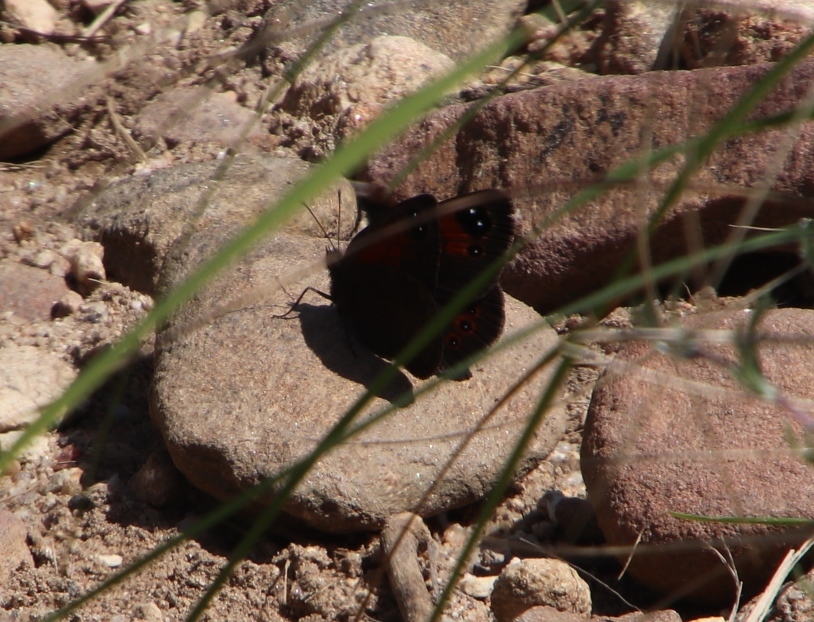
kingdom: Animalia
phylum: Arthropoda
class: Insecta
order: Lepidoptera
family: Nymphalidae
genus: Tarsocera
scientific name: Tarsocera cassus
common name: Spring widow
